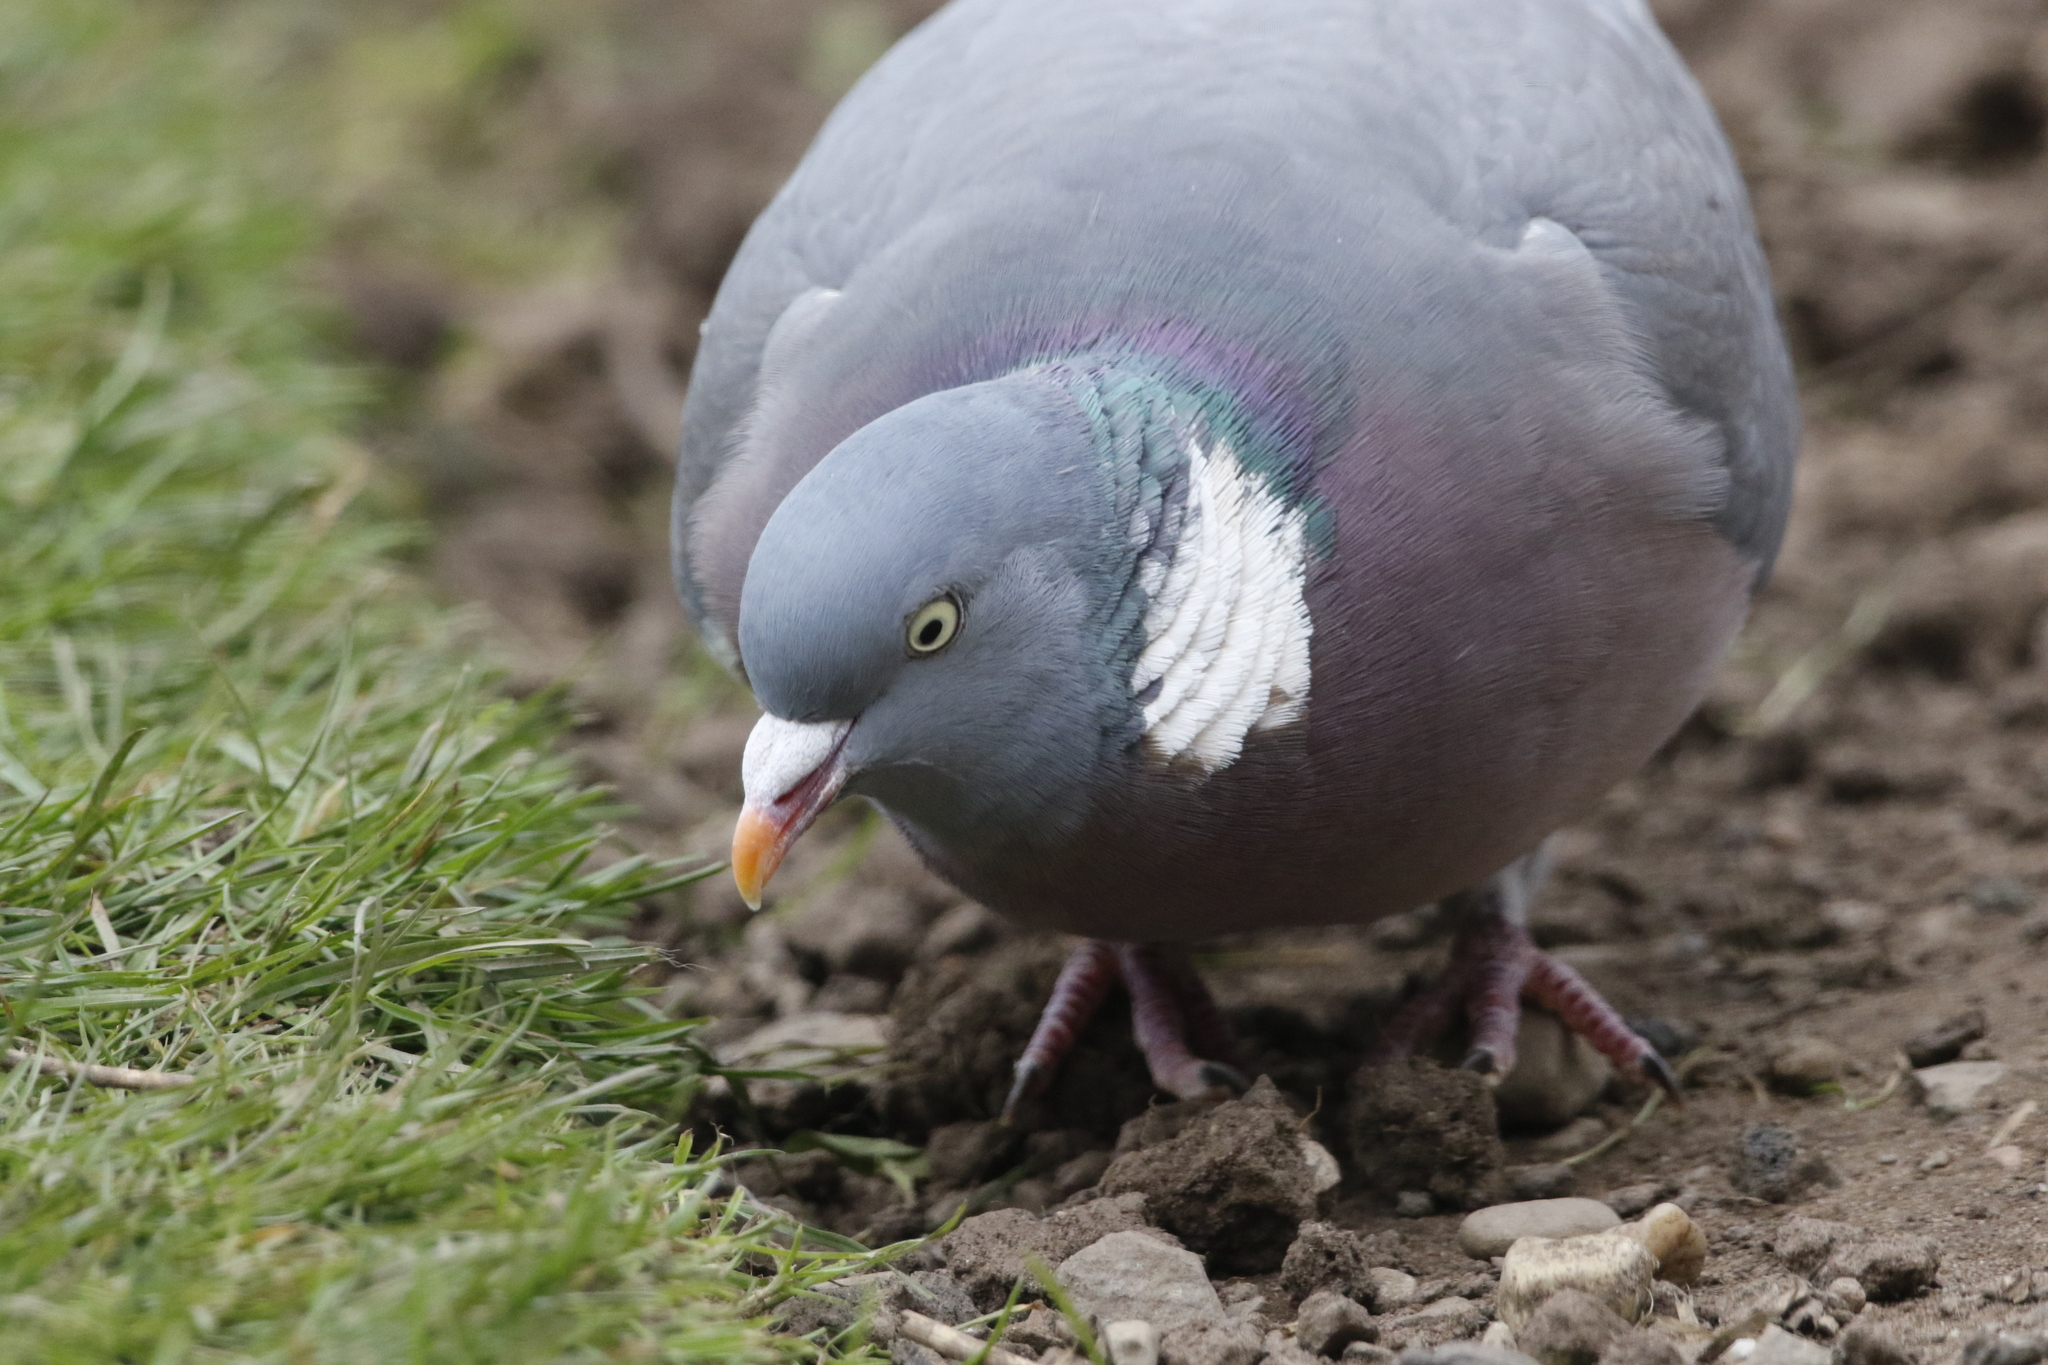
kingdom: Animalia
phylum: Chordata
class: Aves
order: Columbiformes
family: Columbidae
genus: Columba
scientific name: Columba palumbus
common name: Common wood pigeon
